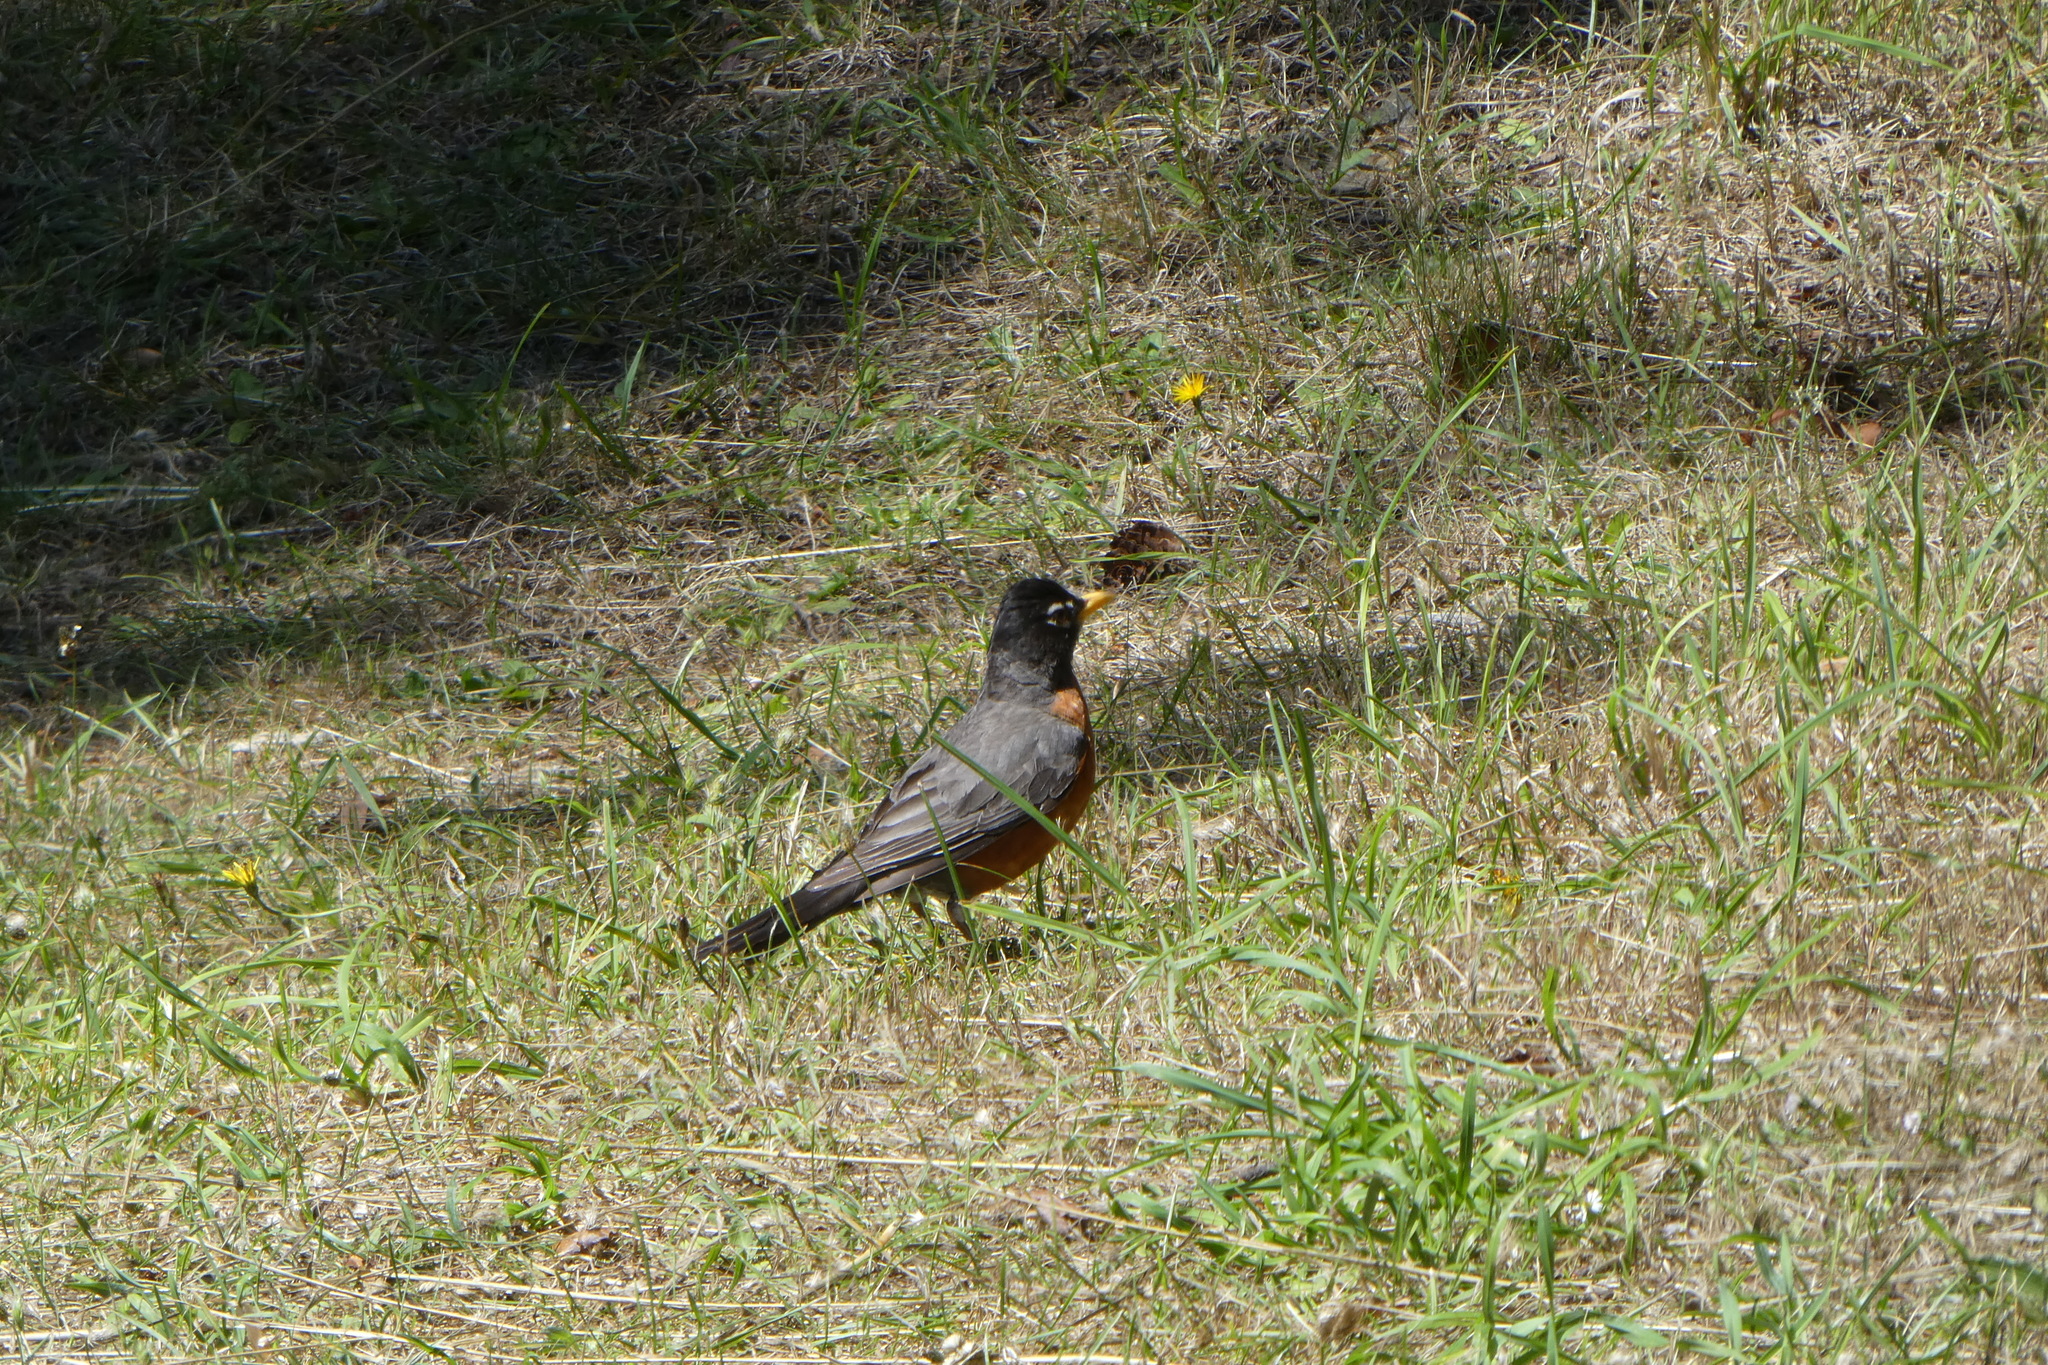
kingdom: Animalia
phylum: Chordata
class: Aves
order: Passeriformes
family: Turdidae
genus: Turdus
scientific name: Turdus migratorius
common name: American robin
